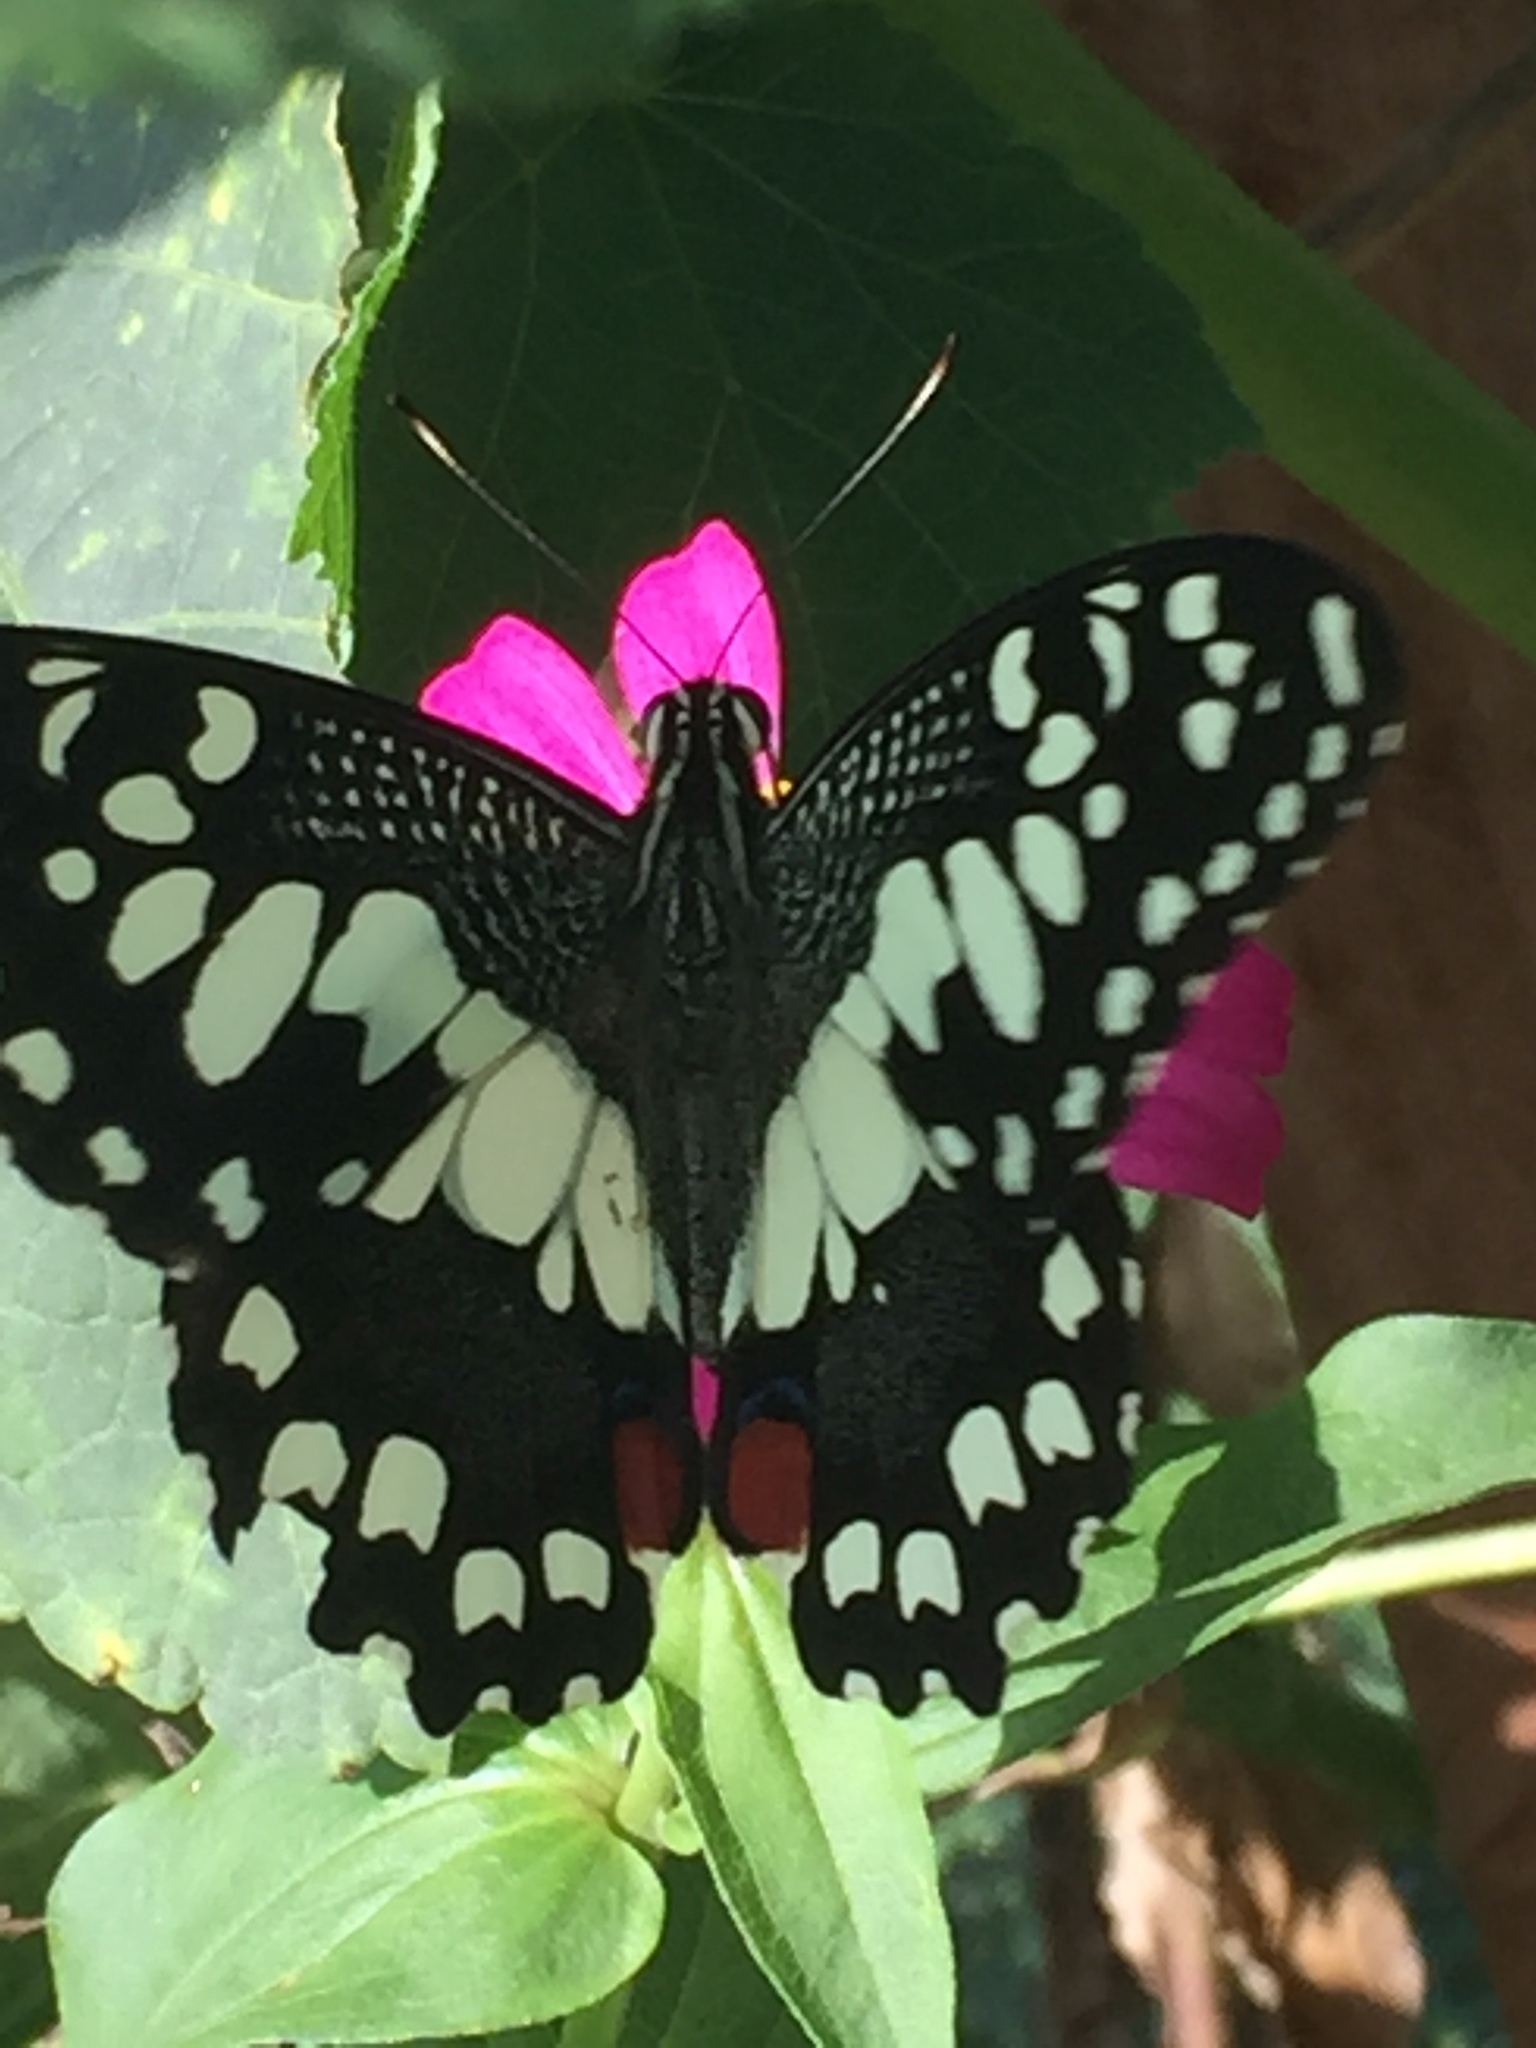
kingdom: Animalia
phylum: Arthropoda
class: Insecta
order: Lepidoptera
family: Papilionidae
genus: Papilio
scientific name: Papilio demoleus
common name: Lime butterfly
